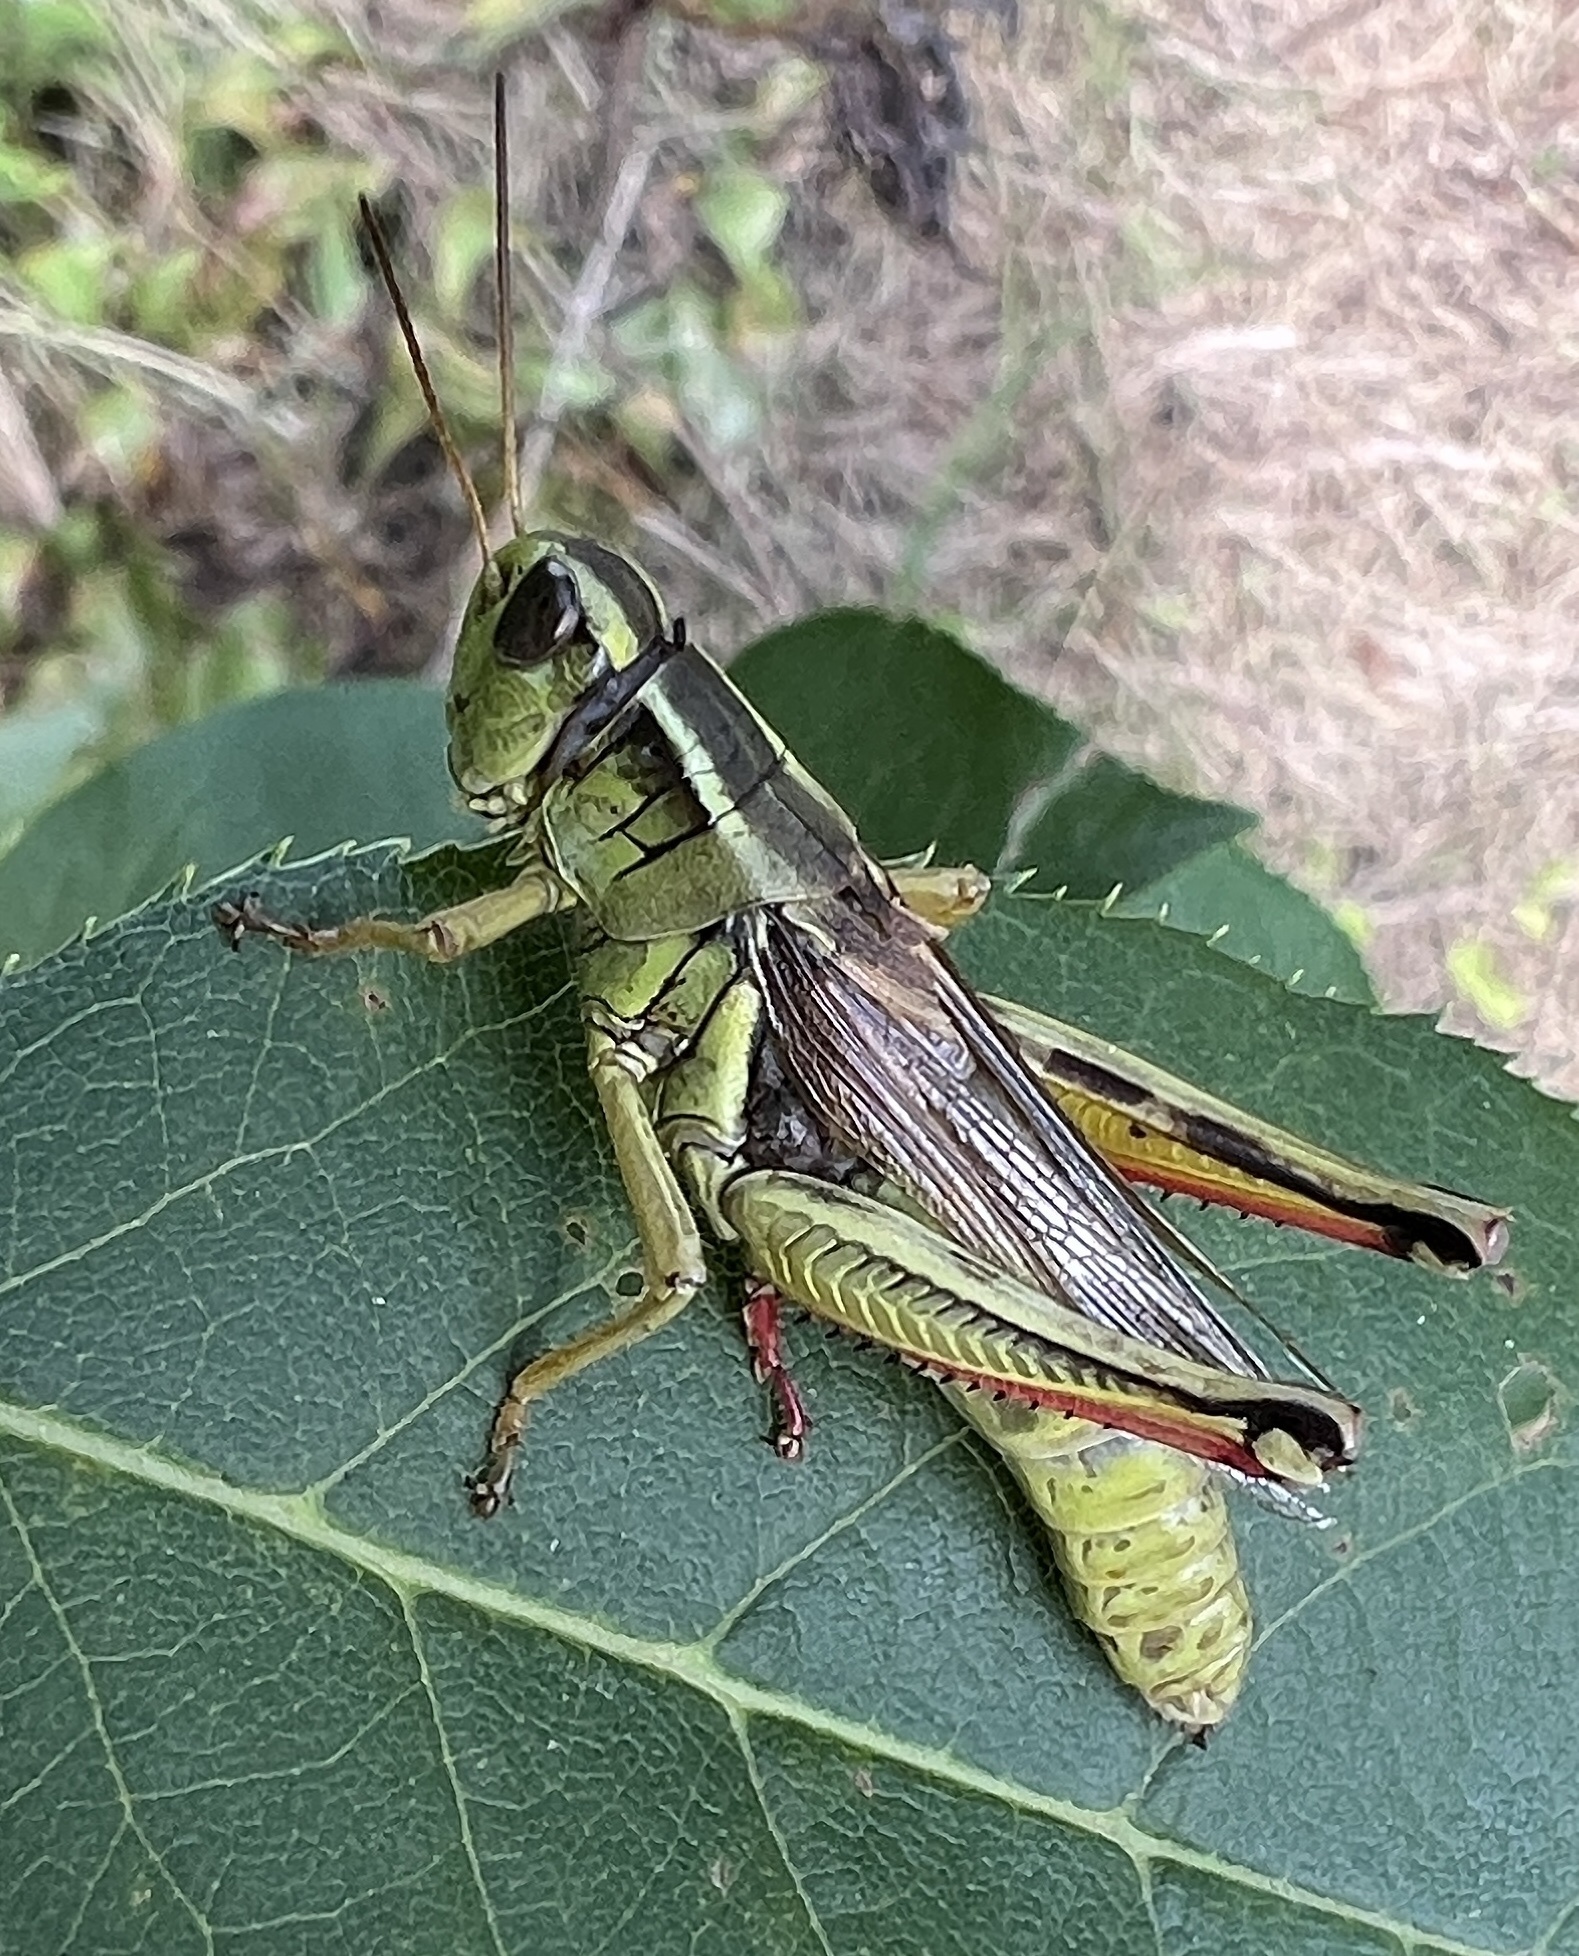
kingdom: Animalia
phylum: Arthropoda
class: Insecta
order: Orthoptera
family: Acrididae
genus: Melanoplus
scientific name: Melanoplus bivittatus
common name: Two-striped grasshopper
